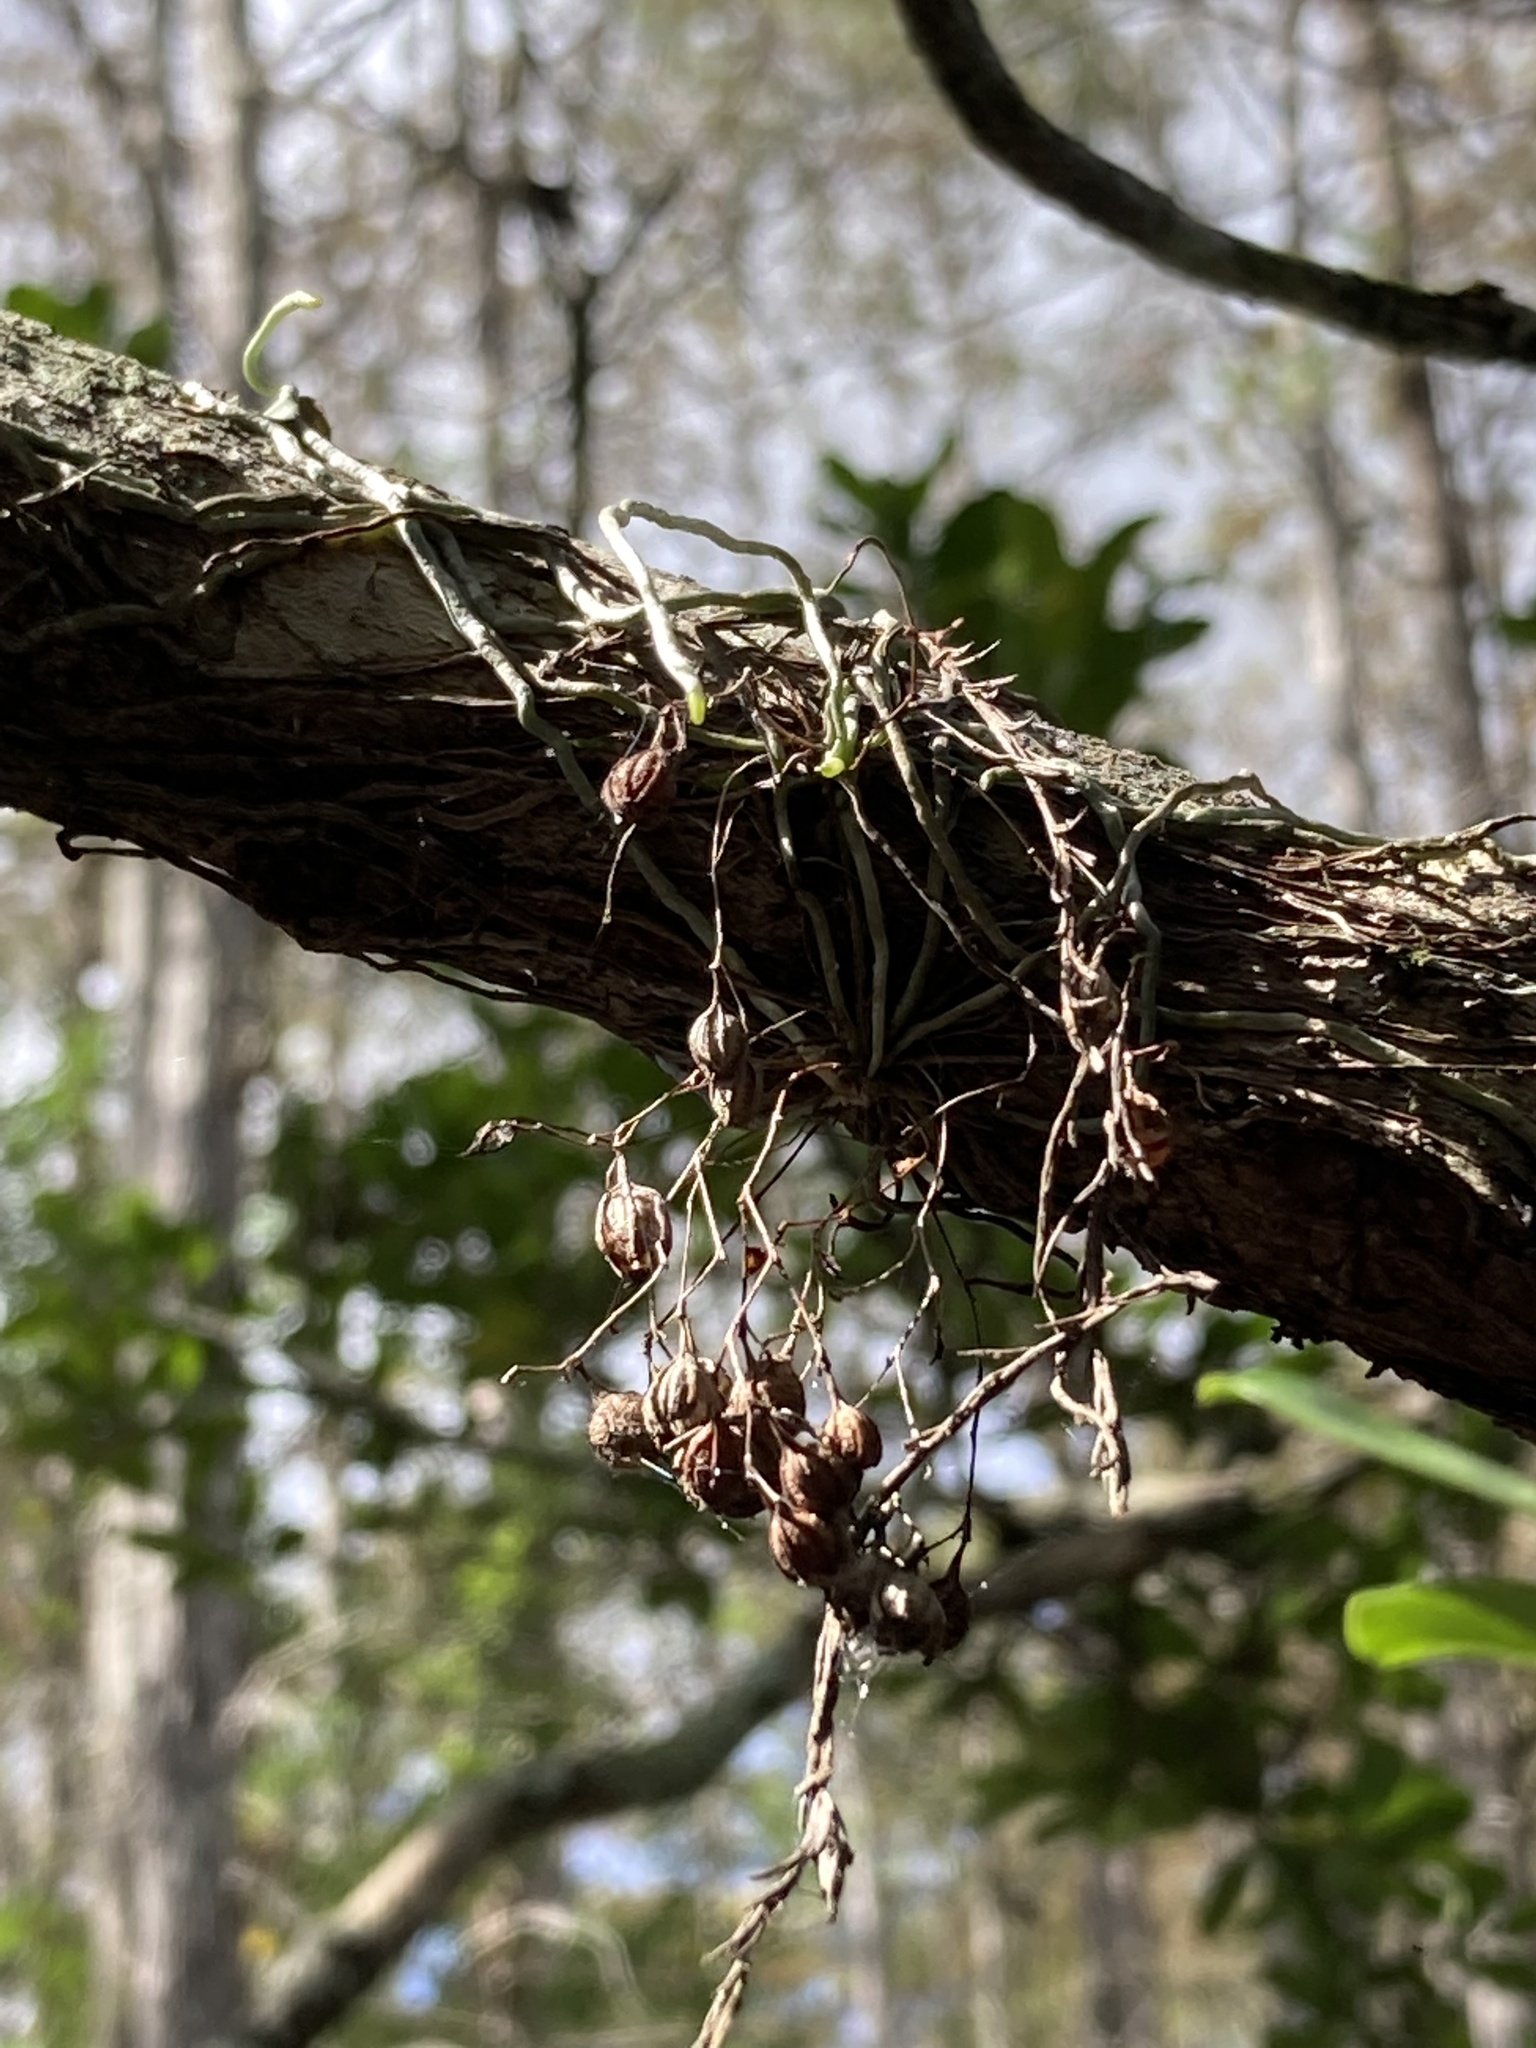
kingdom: Plantae
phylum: Tracheophyta
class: Liliopsida
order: Asparagales
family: Orchidaceae
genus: Dendrophylax
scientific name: Dendrophylax porrectus
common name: Needleroot airplant orchid
